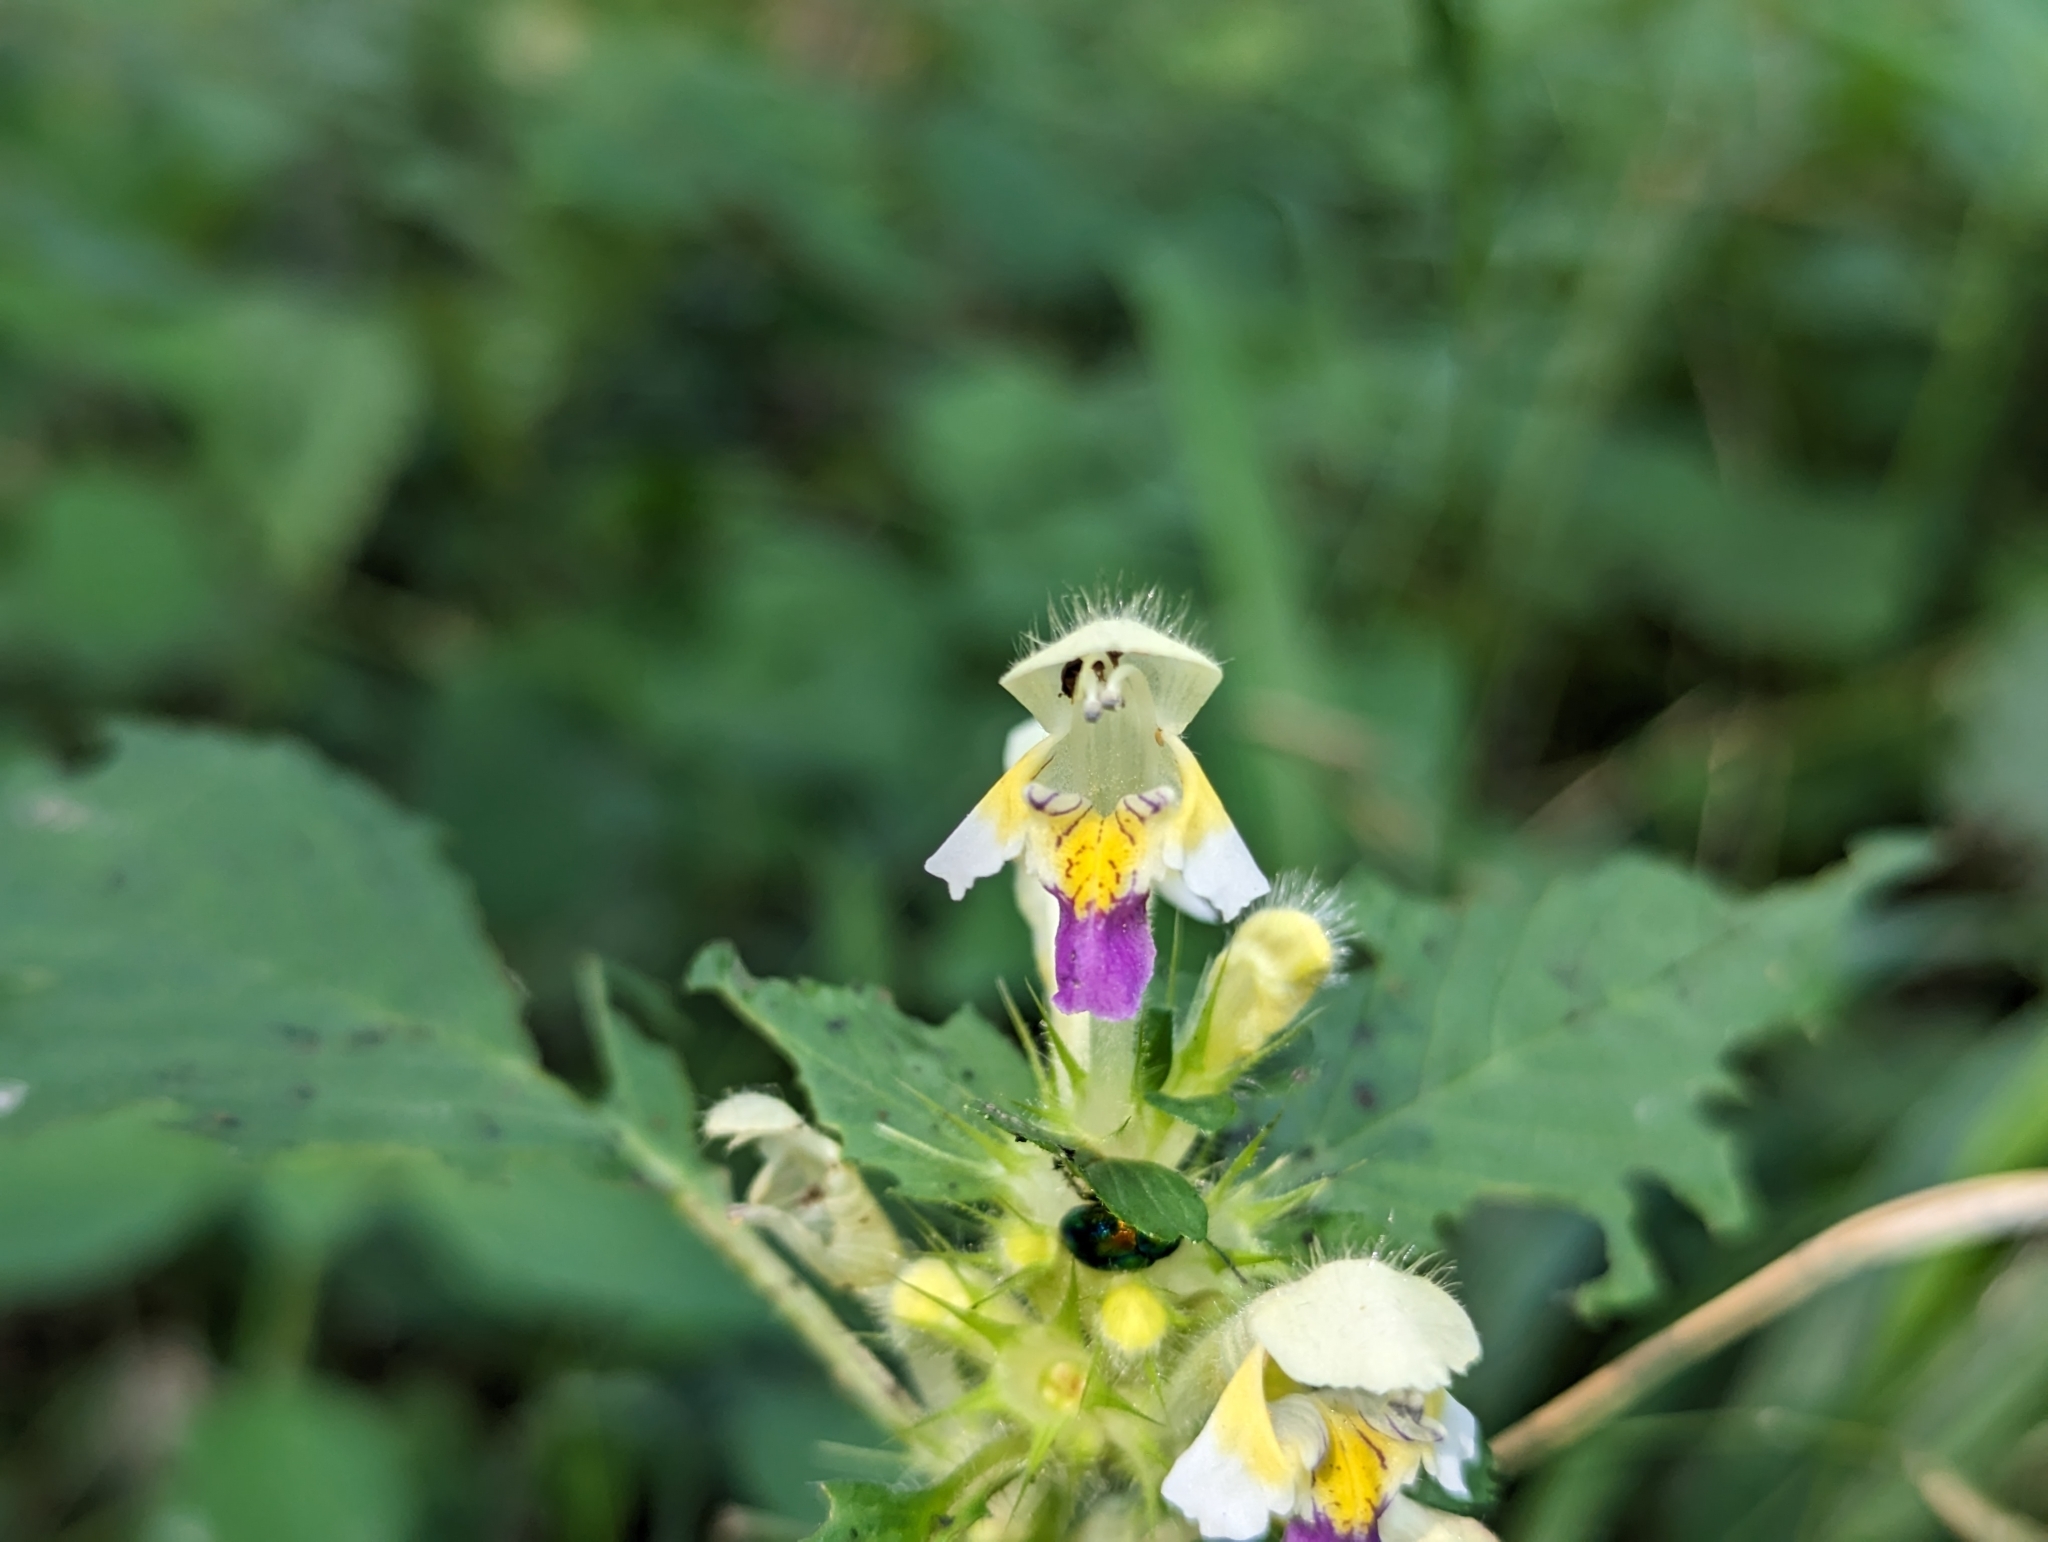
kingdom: Plantae
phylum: Tracheophyta
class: Magnoliopsida
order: Lamiales
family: Lamiaceae
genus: Galeopsis
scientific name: Galeopsis speciosa
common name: Large-flowered hemp-nettle
